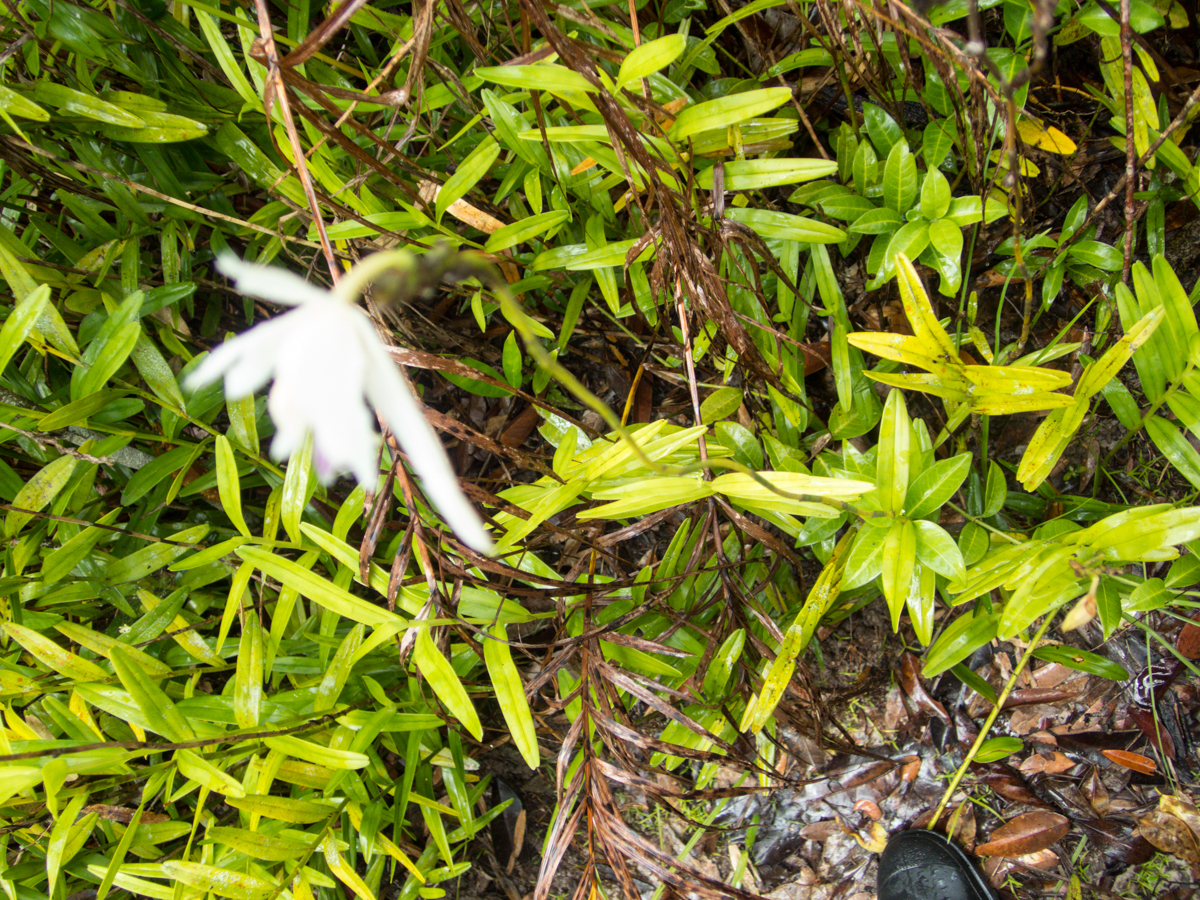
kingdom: Plantae
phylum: Tracheophyta
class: Liliopsida
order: Asparagales
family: Orchidaceae
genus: Bromheadia
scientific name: Bromheadia finlaysoniana
